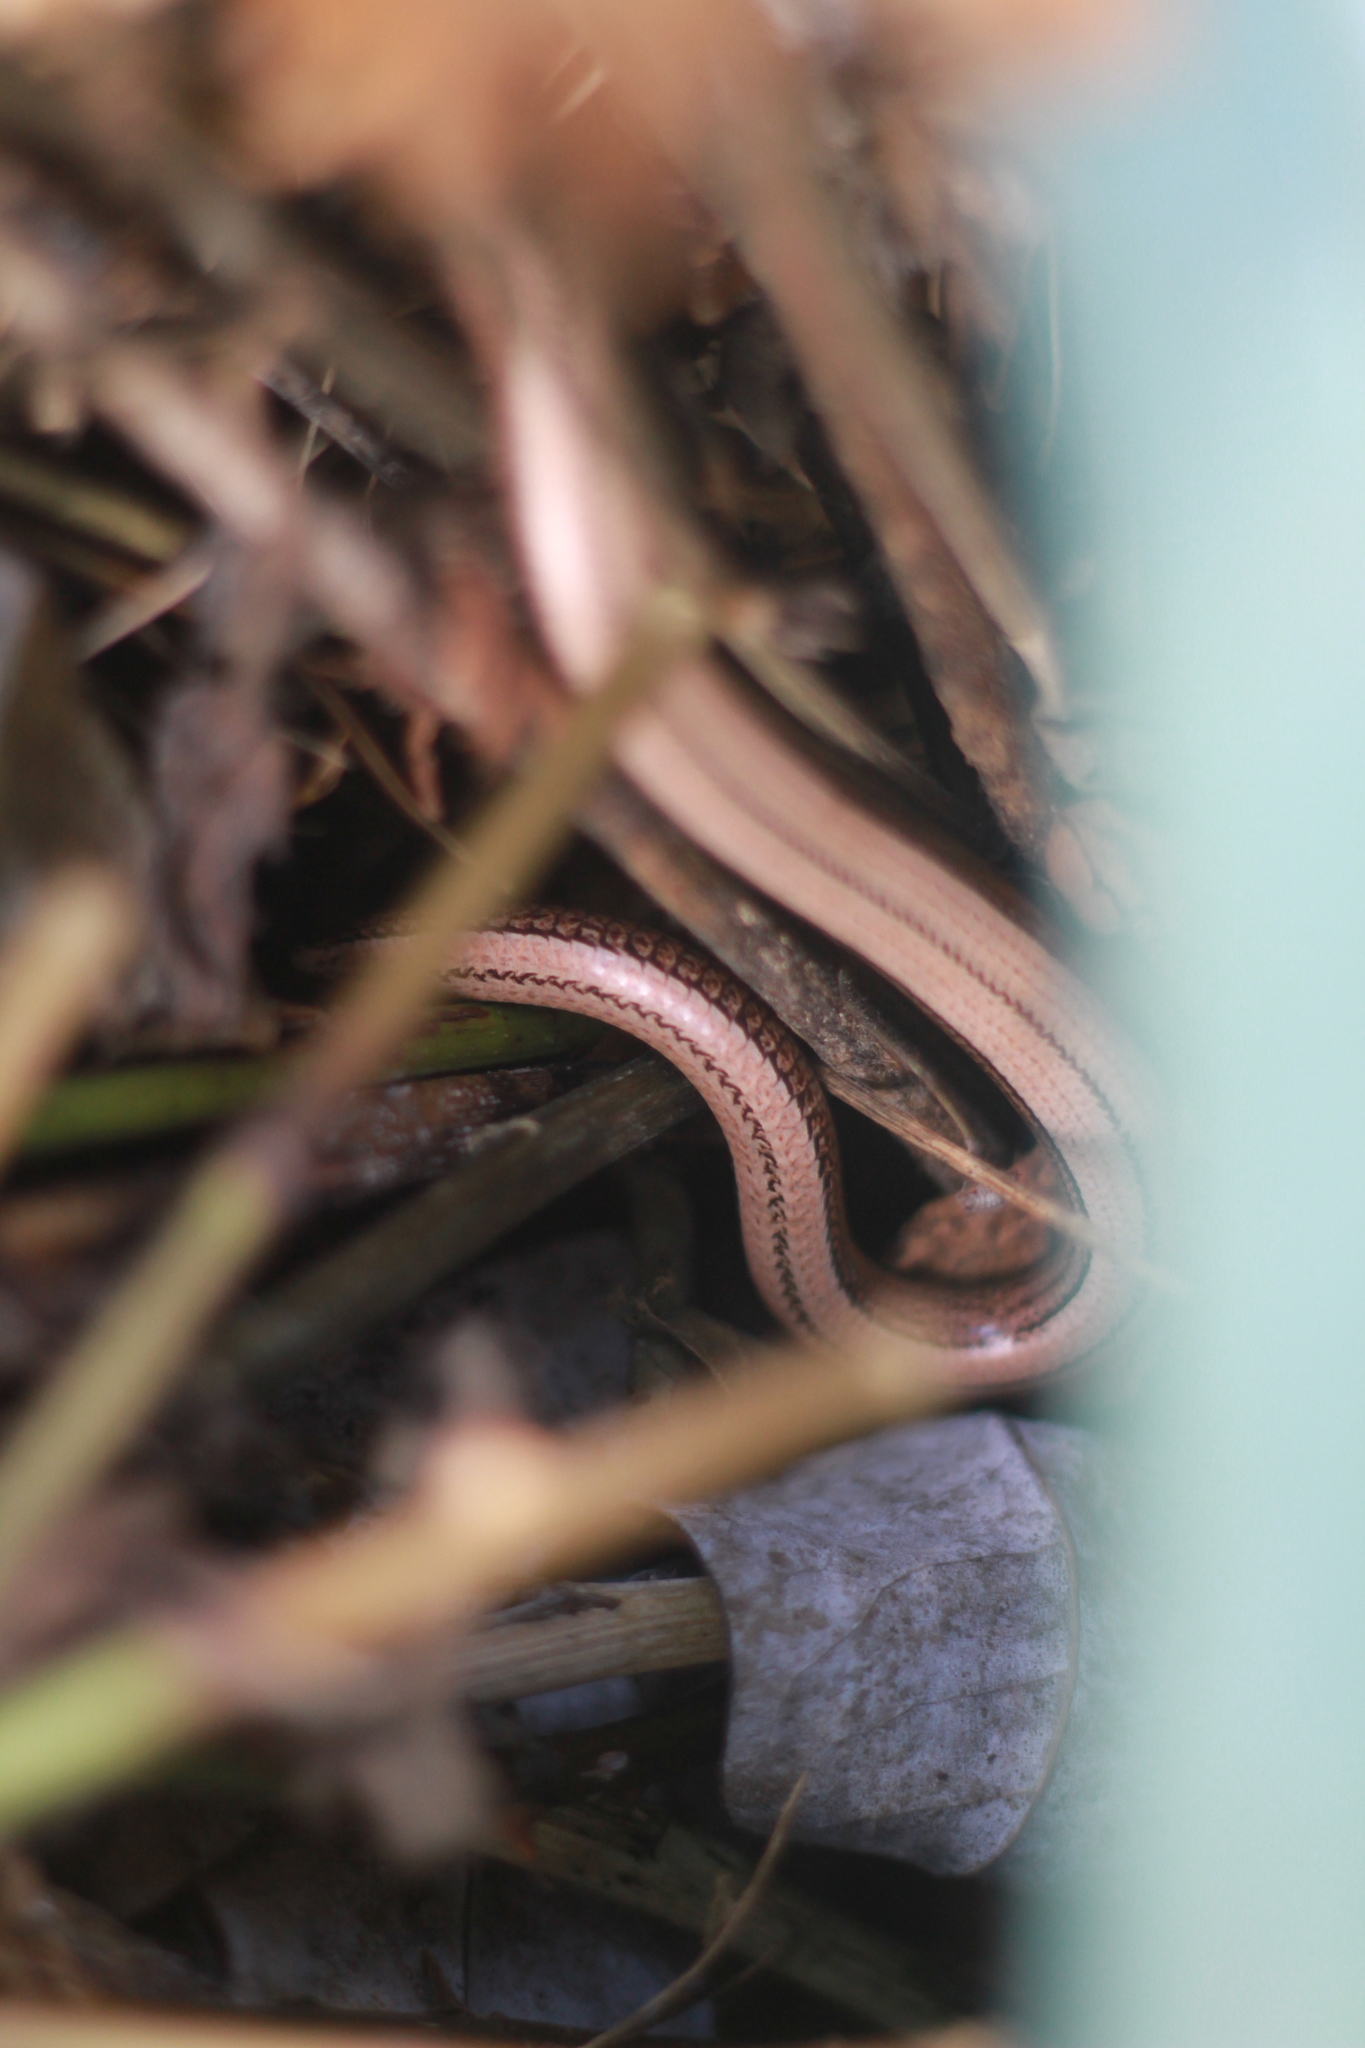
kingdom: Animalia
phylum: Chordata
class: Squamata
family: Anguidae
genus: Anguis
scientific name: Anguis fragilis
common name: Slow worm
